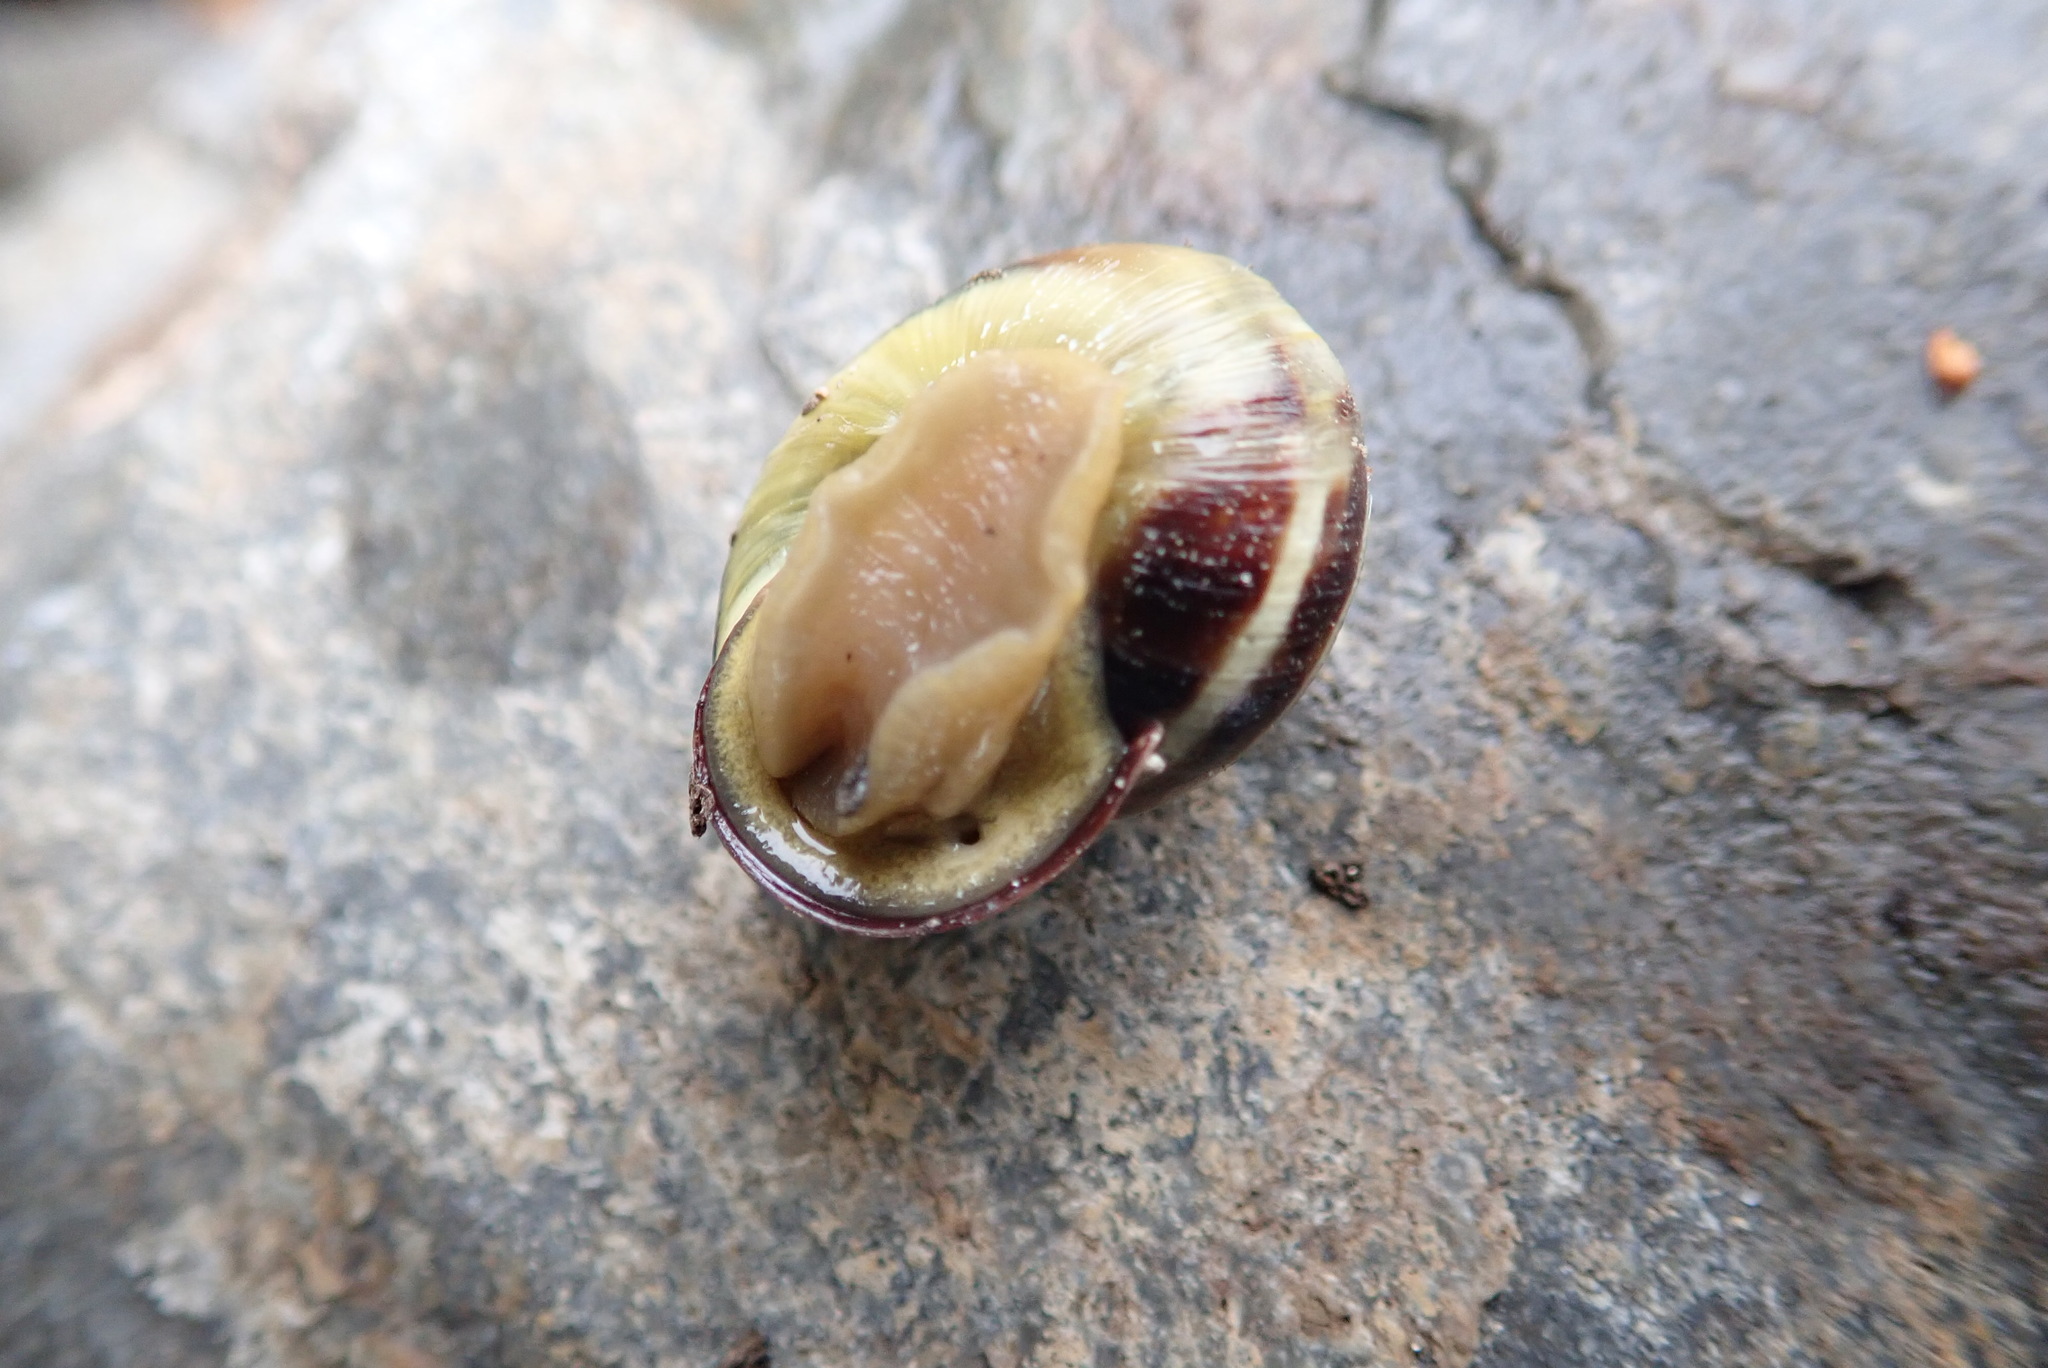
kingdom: Animalia
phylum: Mollusca
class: Gastropoda
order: Stylommatophora
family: Helicidae
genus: Cepaea
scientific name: Cepaea nemoralis
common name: Grovesnail
